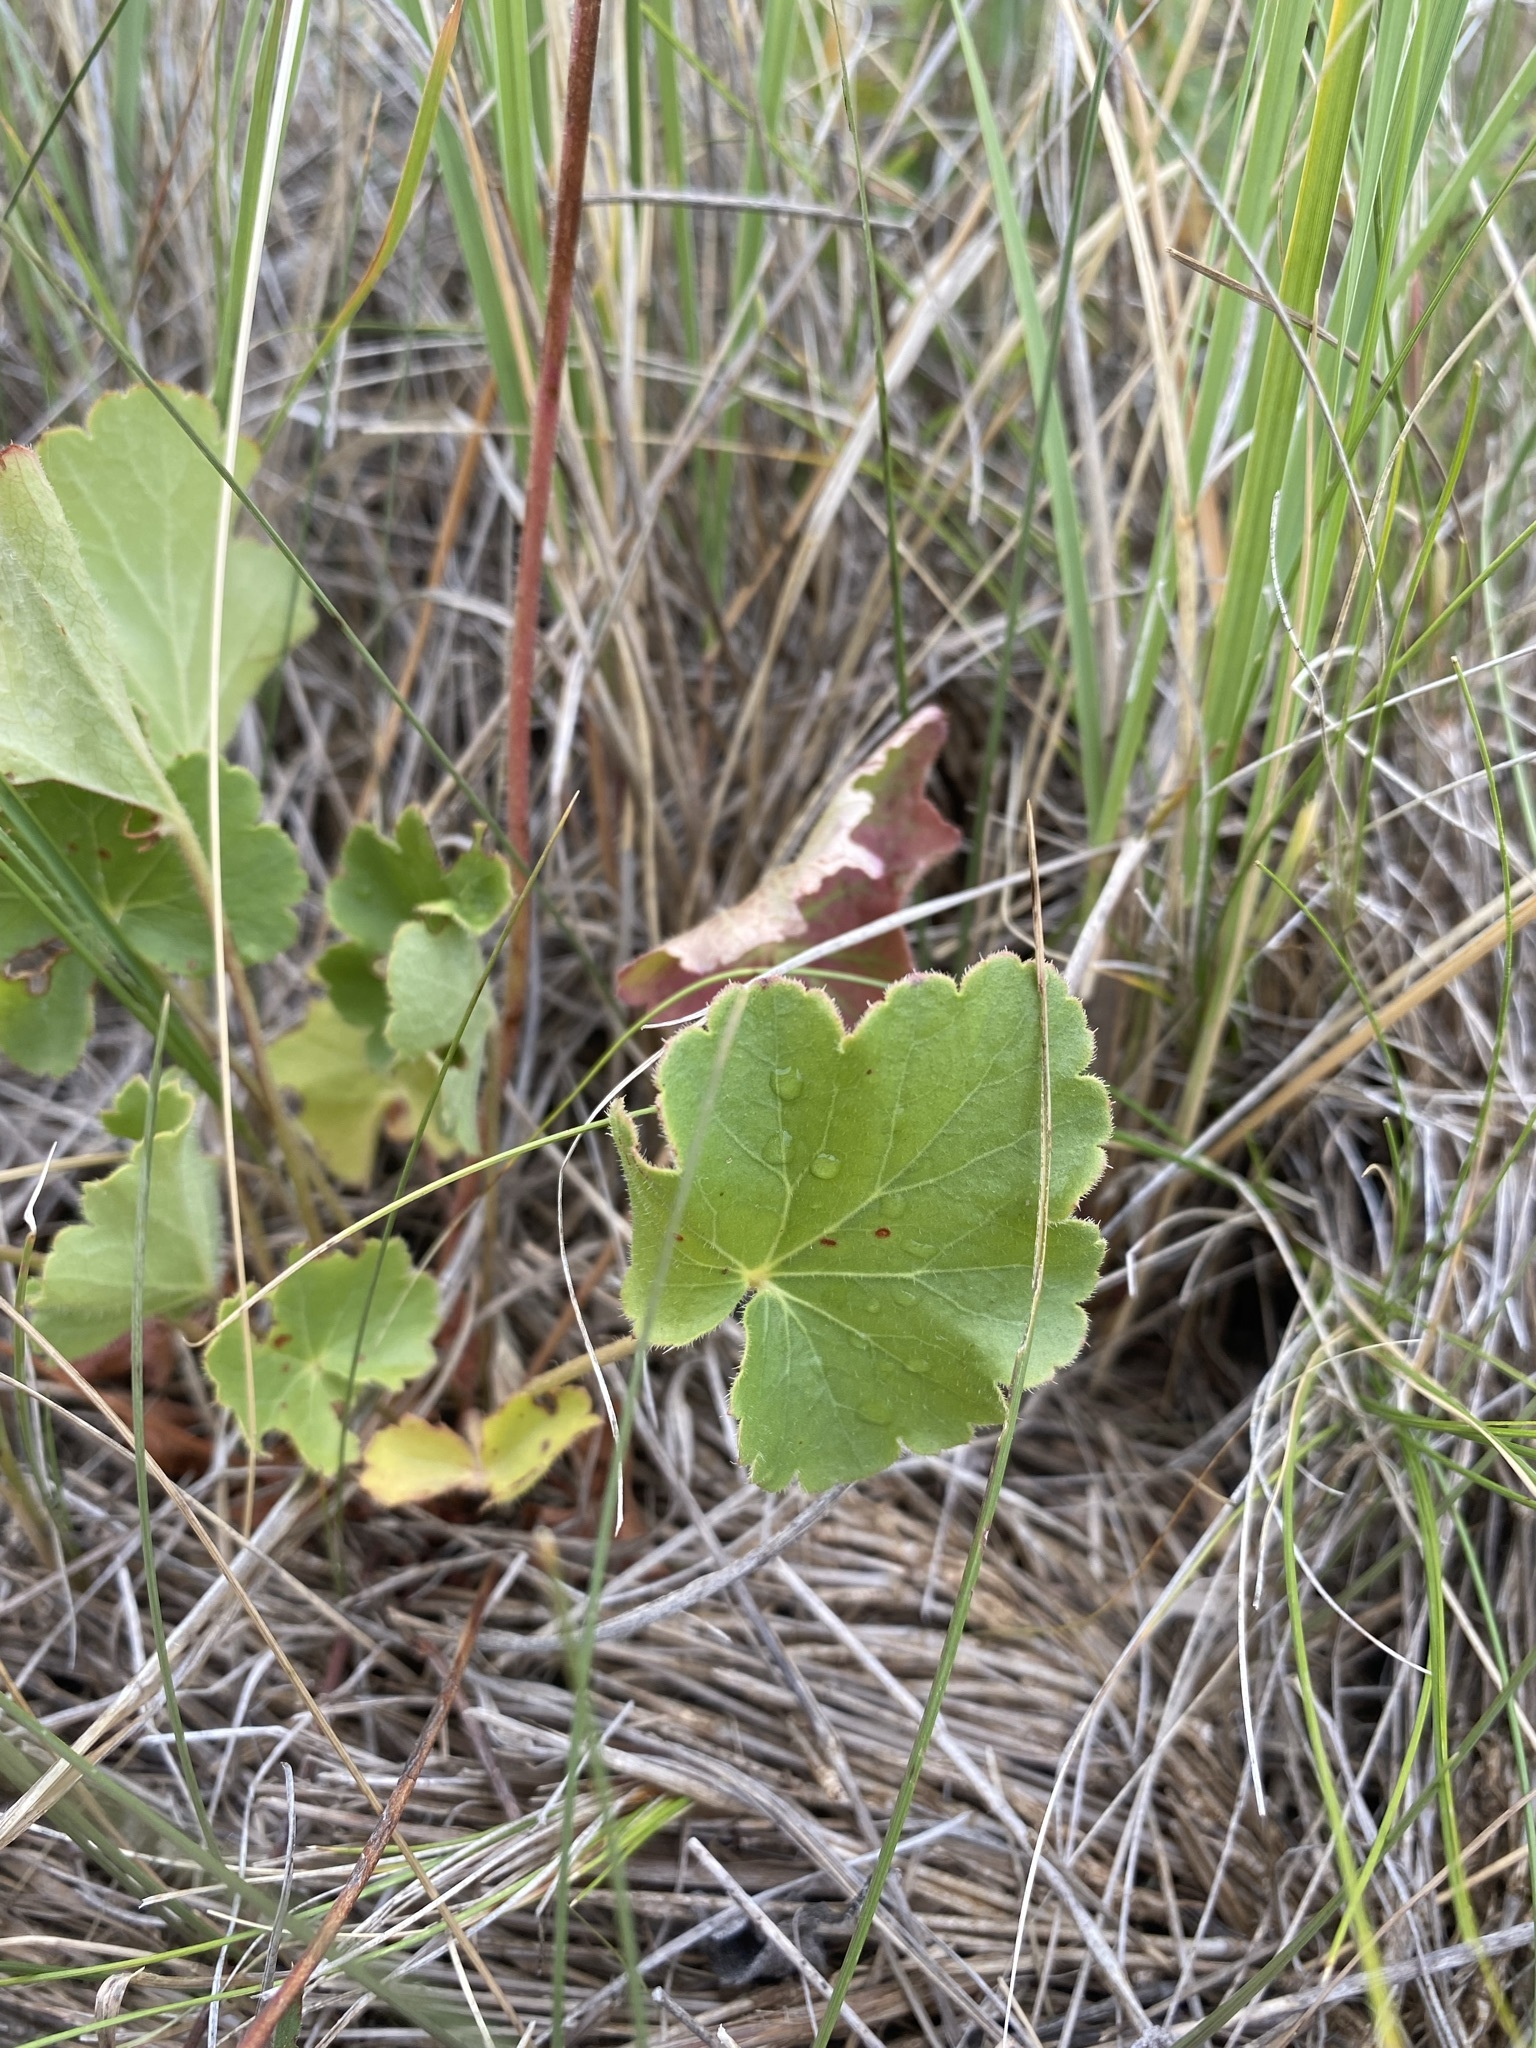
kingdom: Plantae
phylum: Tracheophyta
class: Magnoliopsida
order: Saxifragales
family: Saxifragaceae
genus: Heuchera
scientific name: Heuchera richardsonii
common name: Richardson's alumroot
